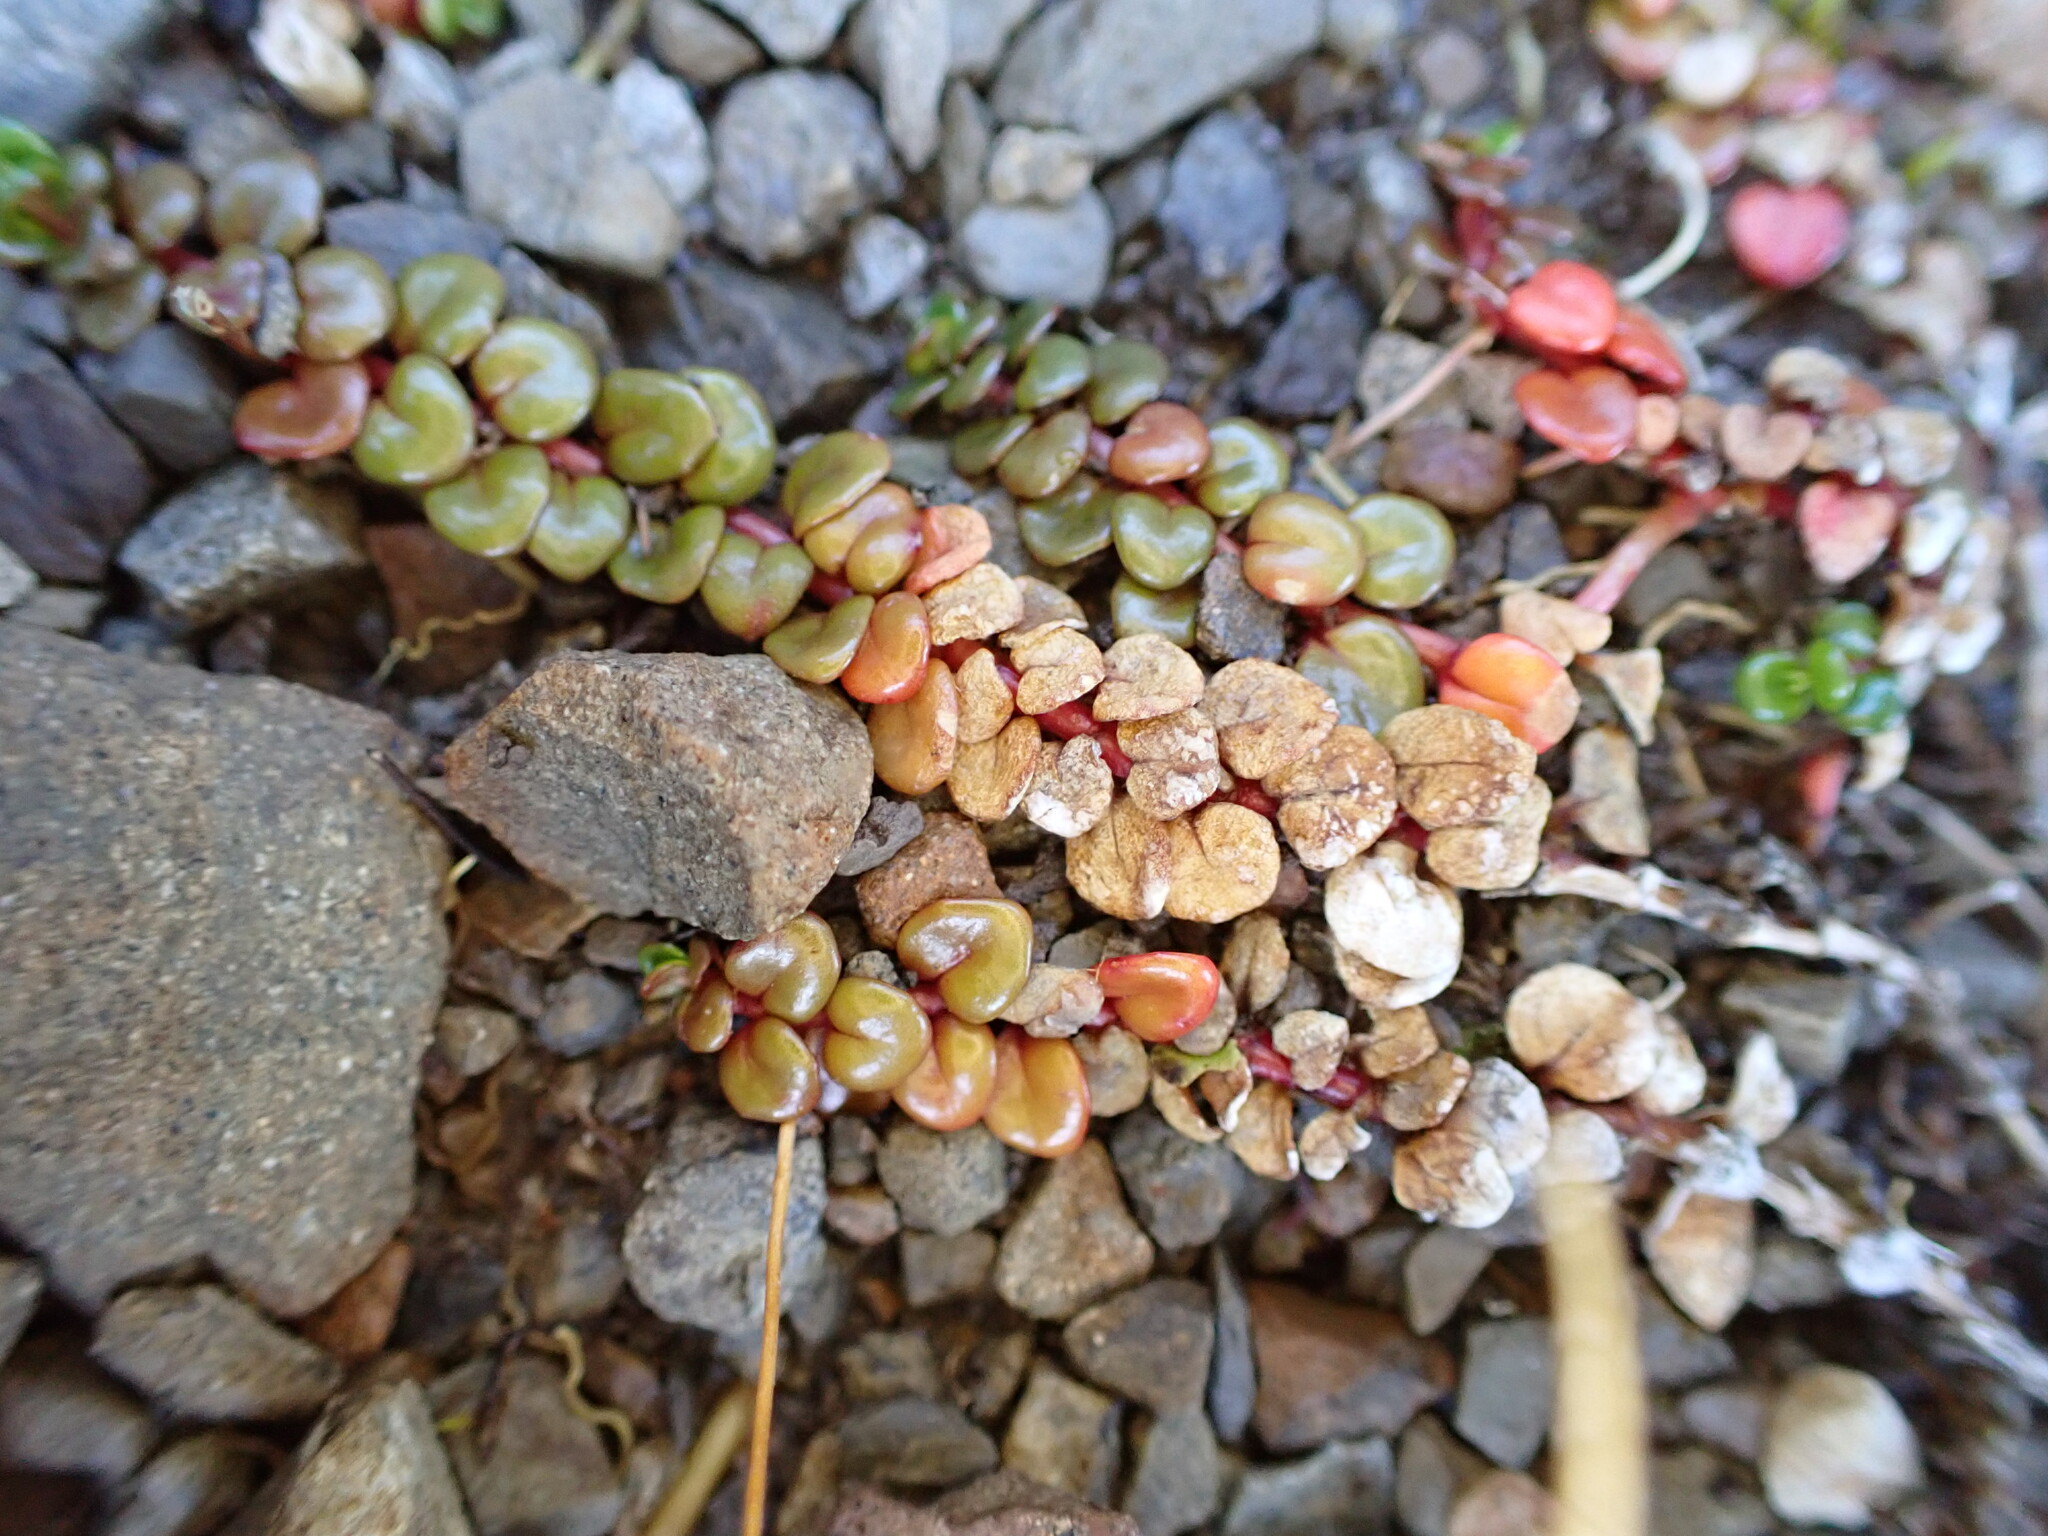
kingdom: Plantae
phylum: Tracheophyta
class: Magnoliopsida
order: Myrtales
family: Onagraceae
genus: Epilobium
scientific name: Epilobium pernitens
